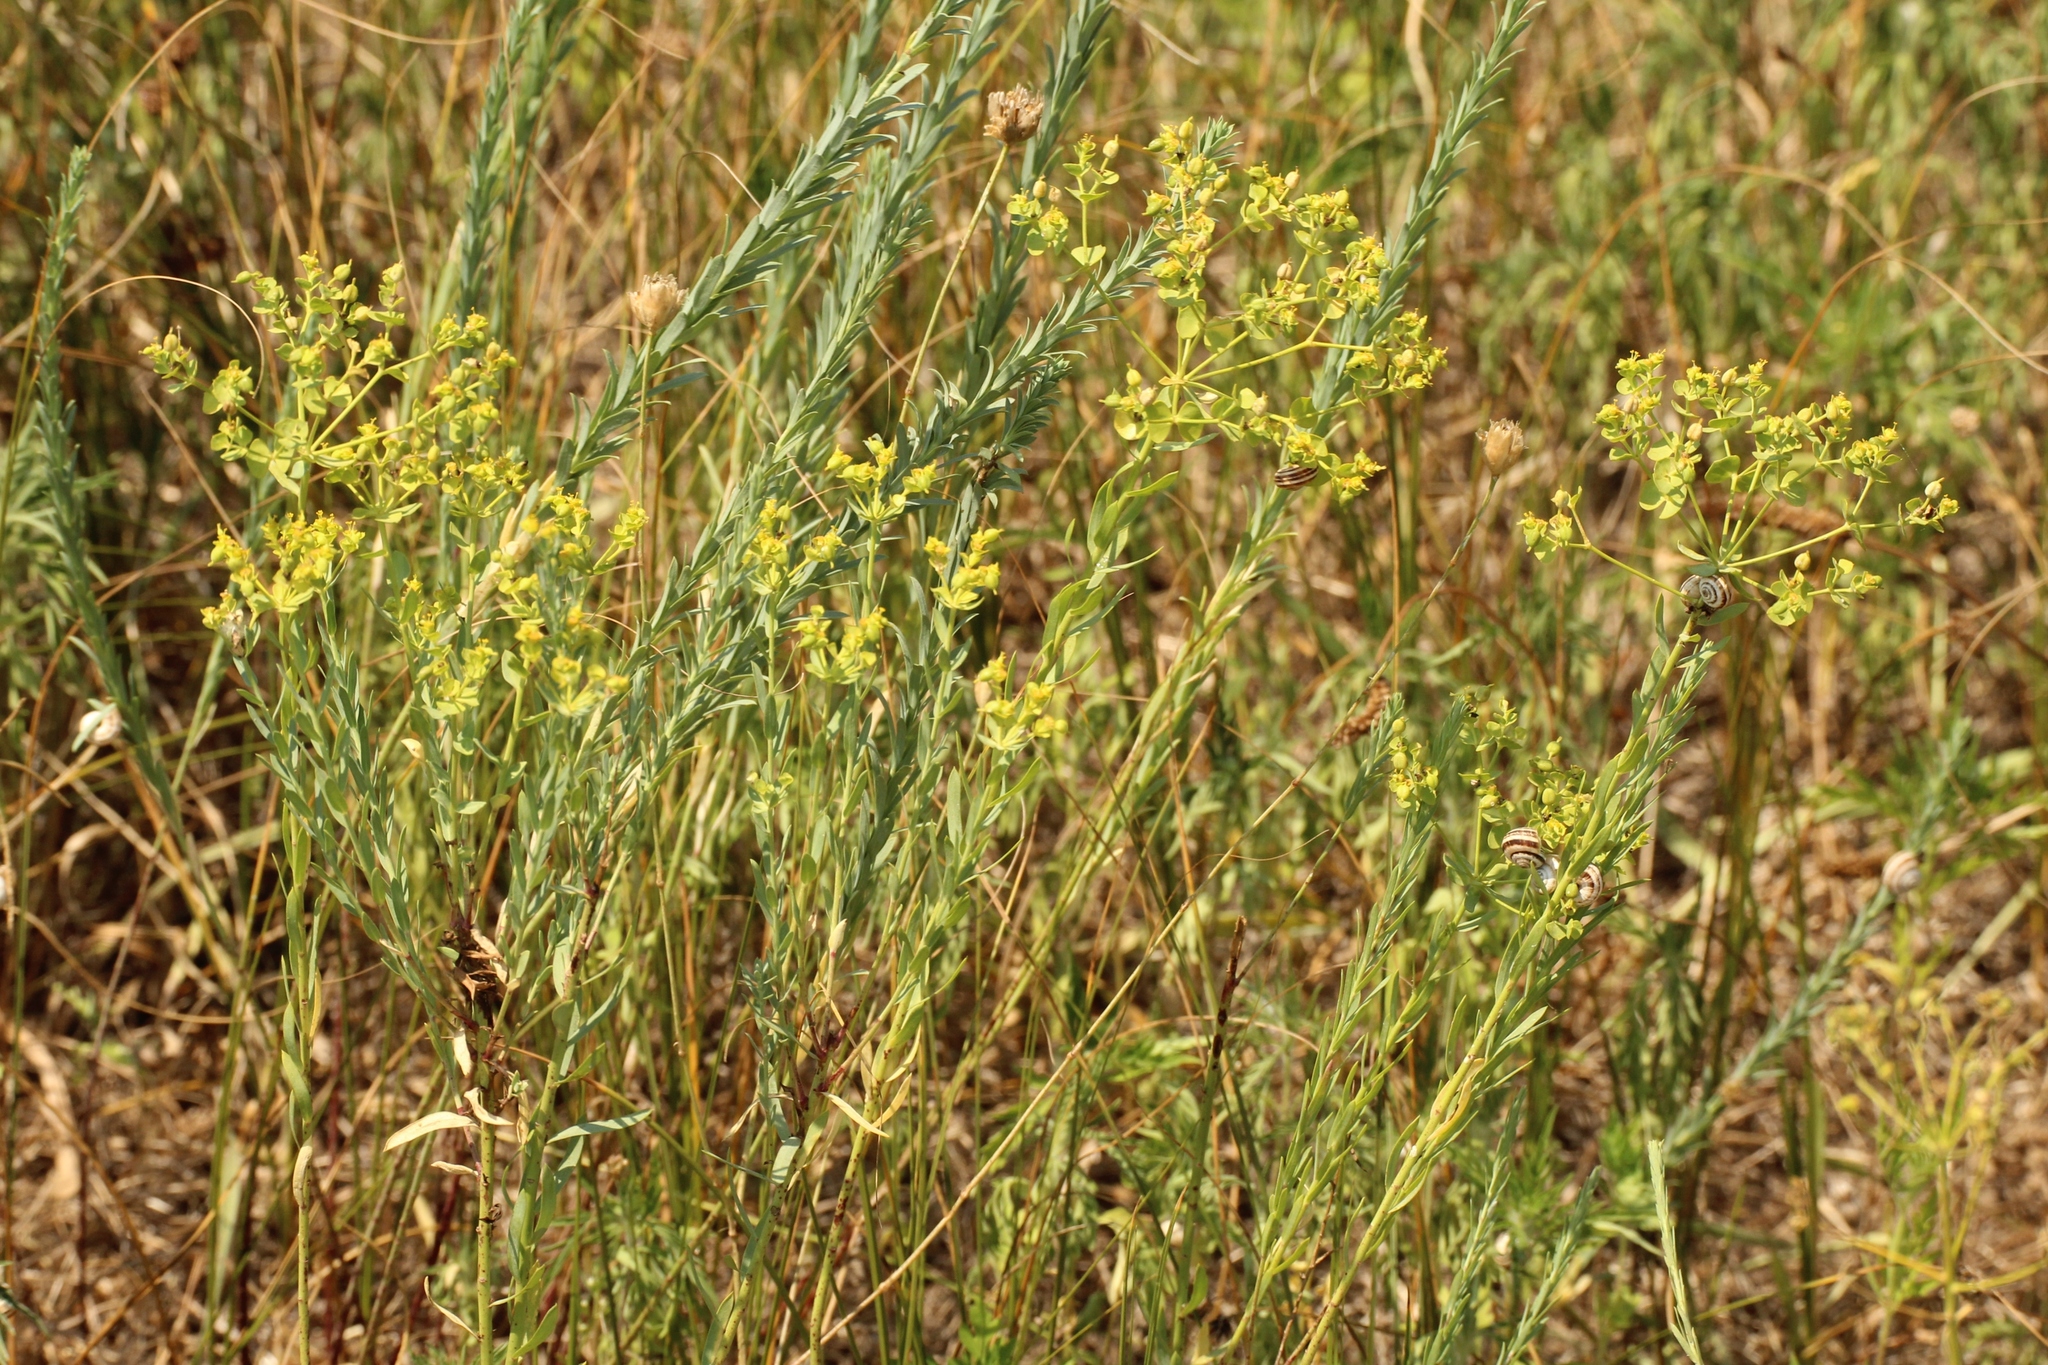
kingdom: Plantae
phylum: Tracheophyta
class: Magnoliopsida
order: Malpighiales
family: Euphorbiaceae
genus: Euphorbia
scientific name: Euphorbia seguieriana
